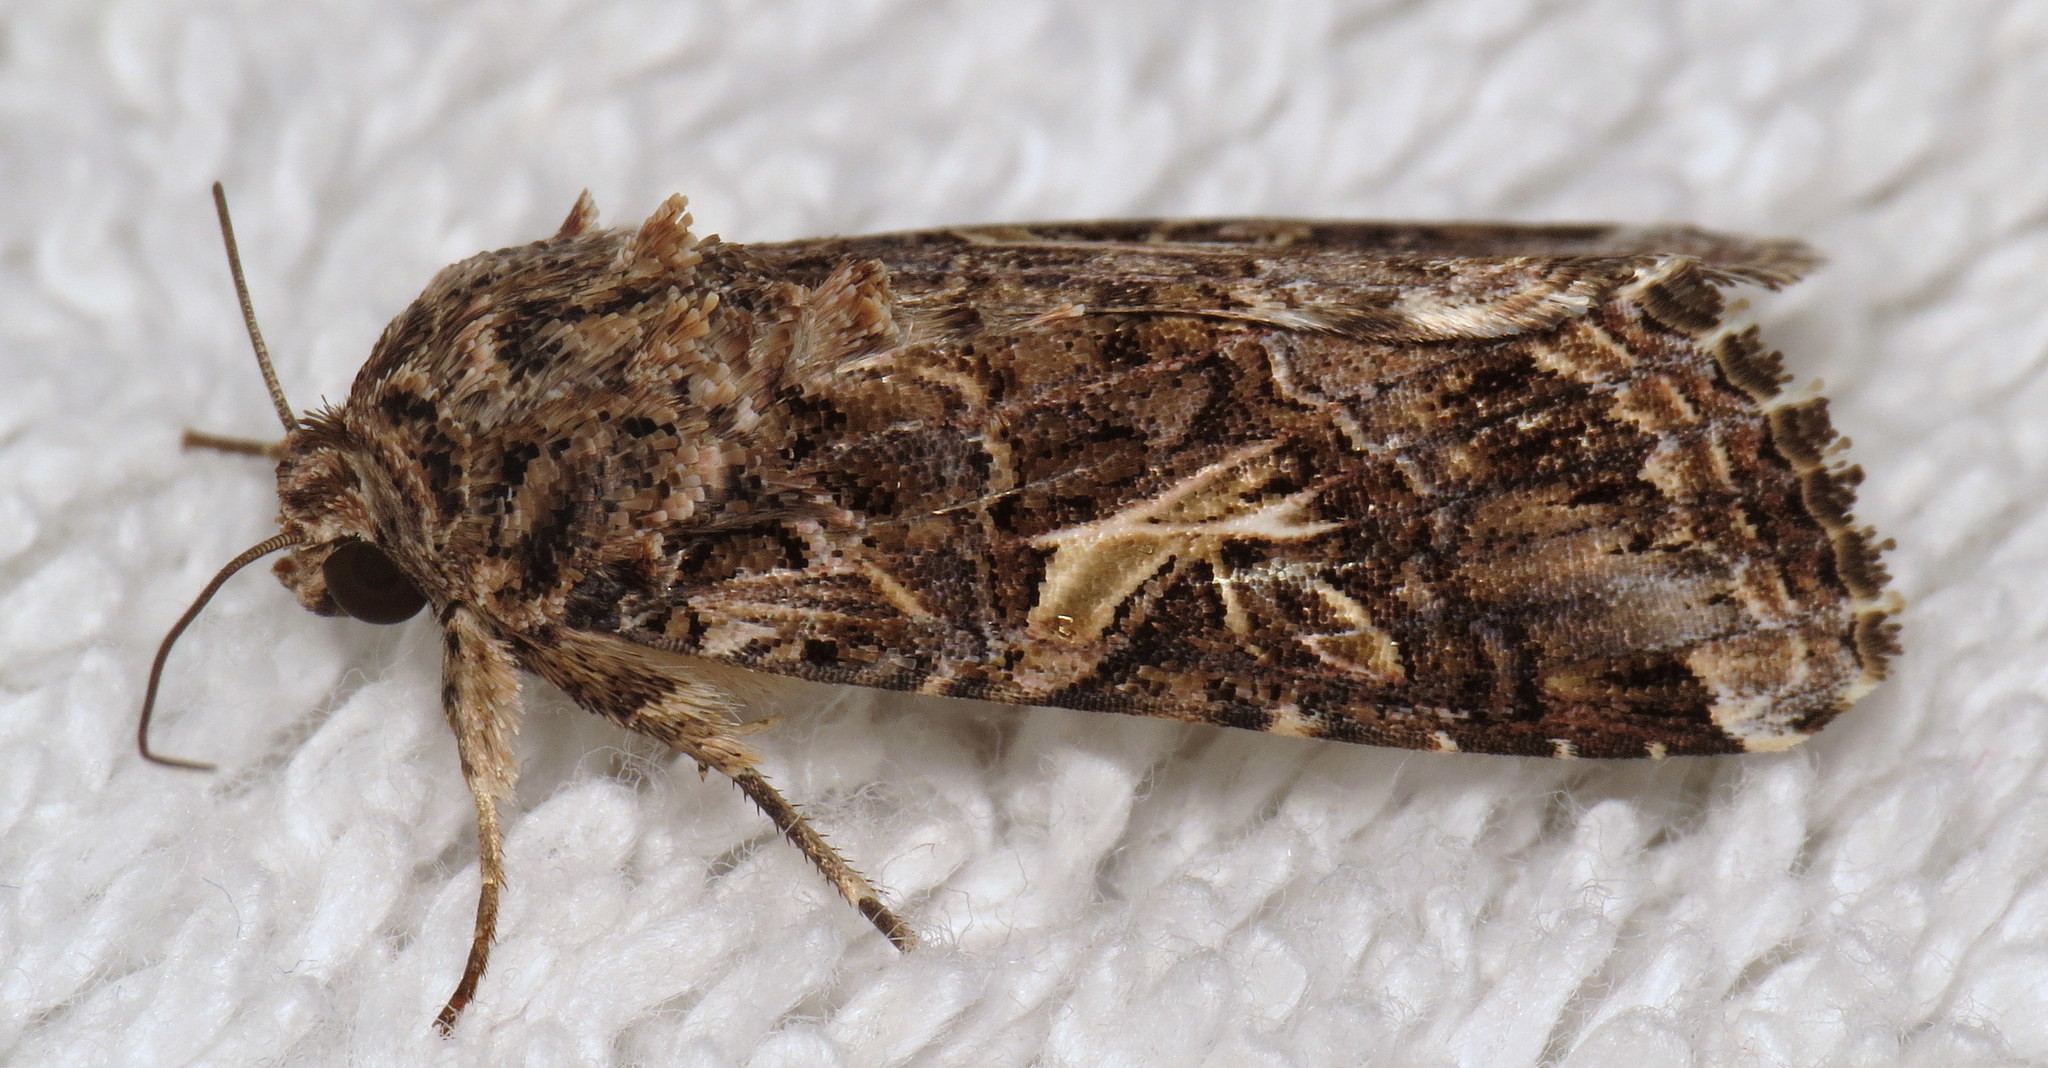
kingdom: Animalia
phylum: Arthropoda
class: Insecta
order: Lepidoptera
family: Noctuidae
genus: Spodoptera
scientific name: Spodoptera ornithogalli
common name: Yellow-striped armyworm
